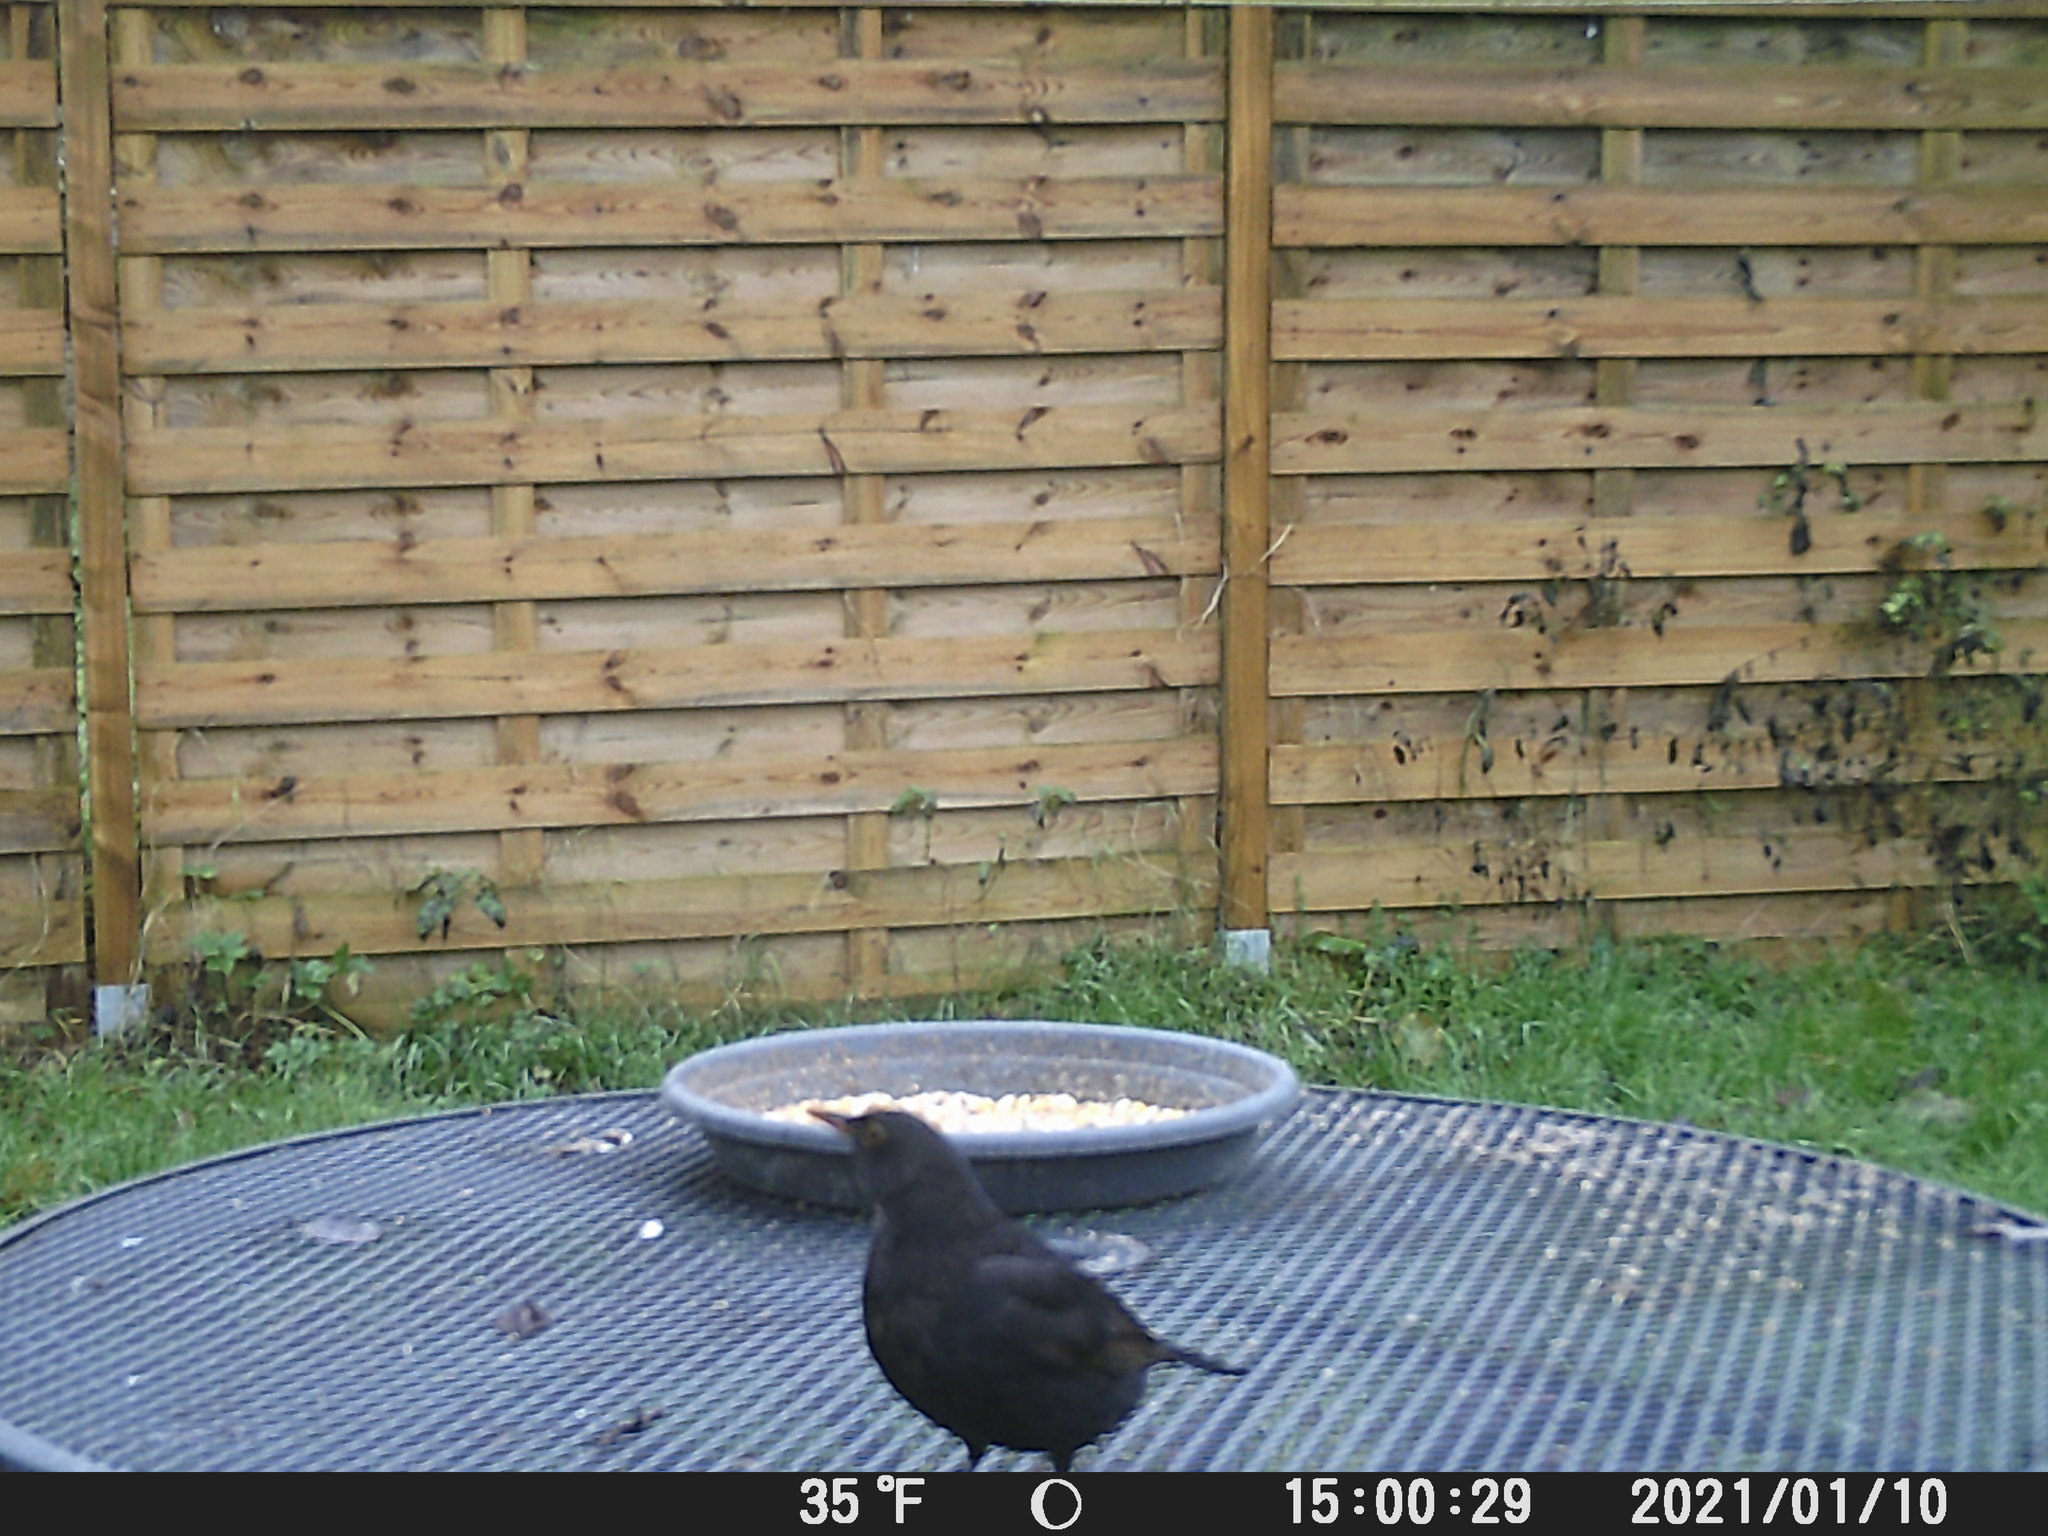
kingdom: Animalia
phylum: Chordata
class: Aves
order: Passeriformes
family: Turdidae
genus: Turdus
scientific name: Turdus merula
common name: Common blackbird
